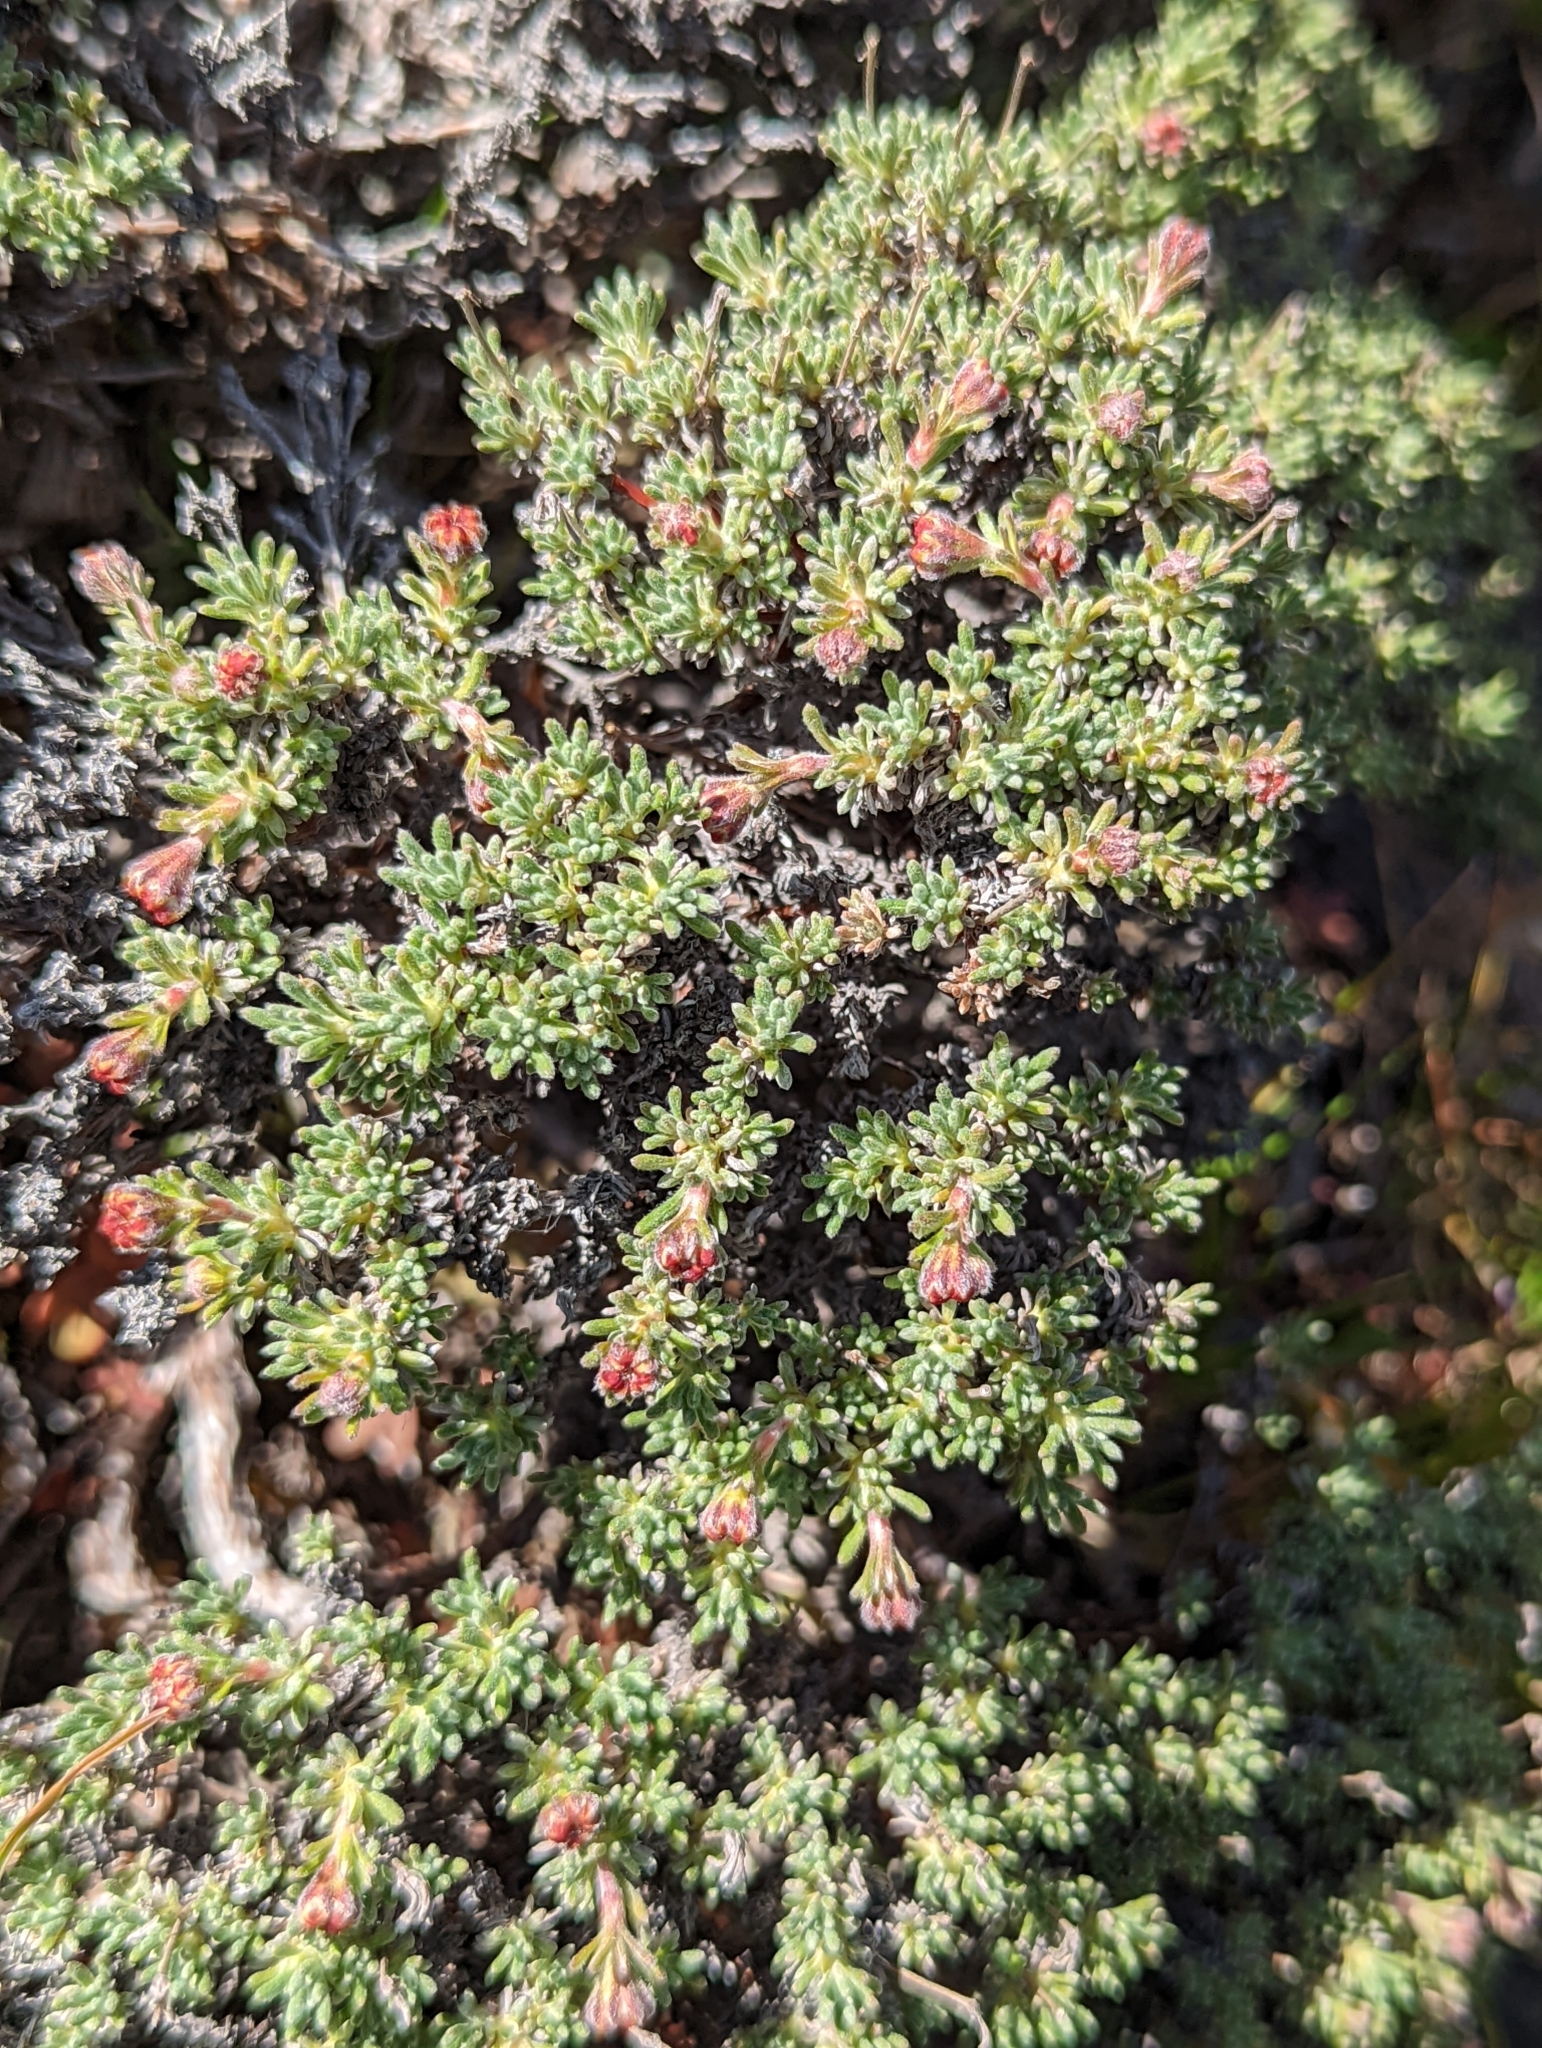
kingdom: Plantae
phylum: Tracheophyta
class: Magnoliopsida
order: Caryophyllales
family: Polygonaceae
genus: Eriogonum
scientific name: Eriogonum thymoides
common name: Thyme-leaf wild buckwheat
